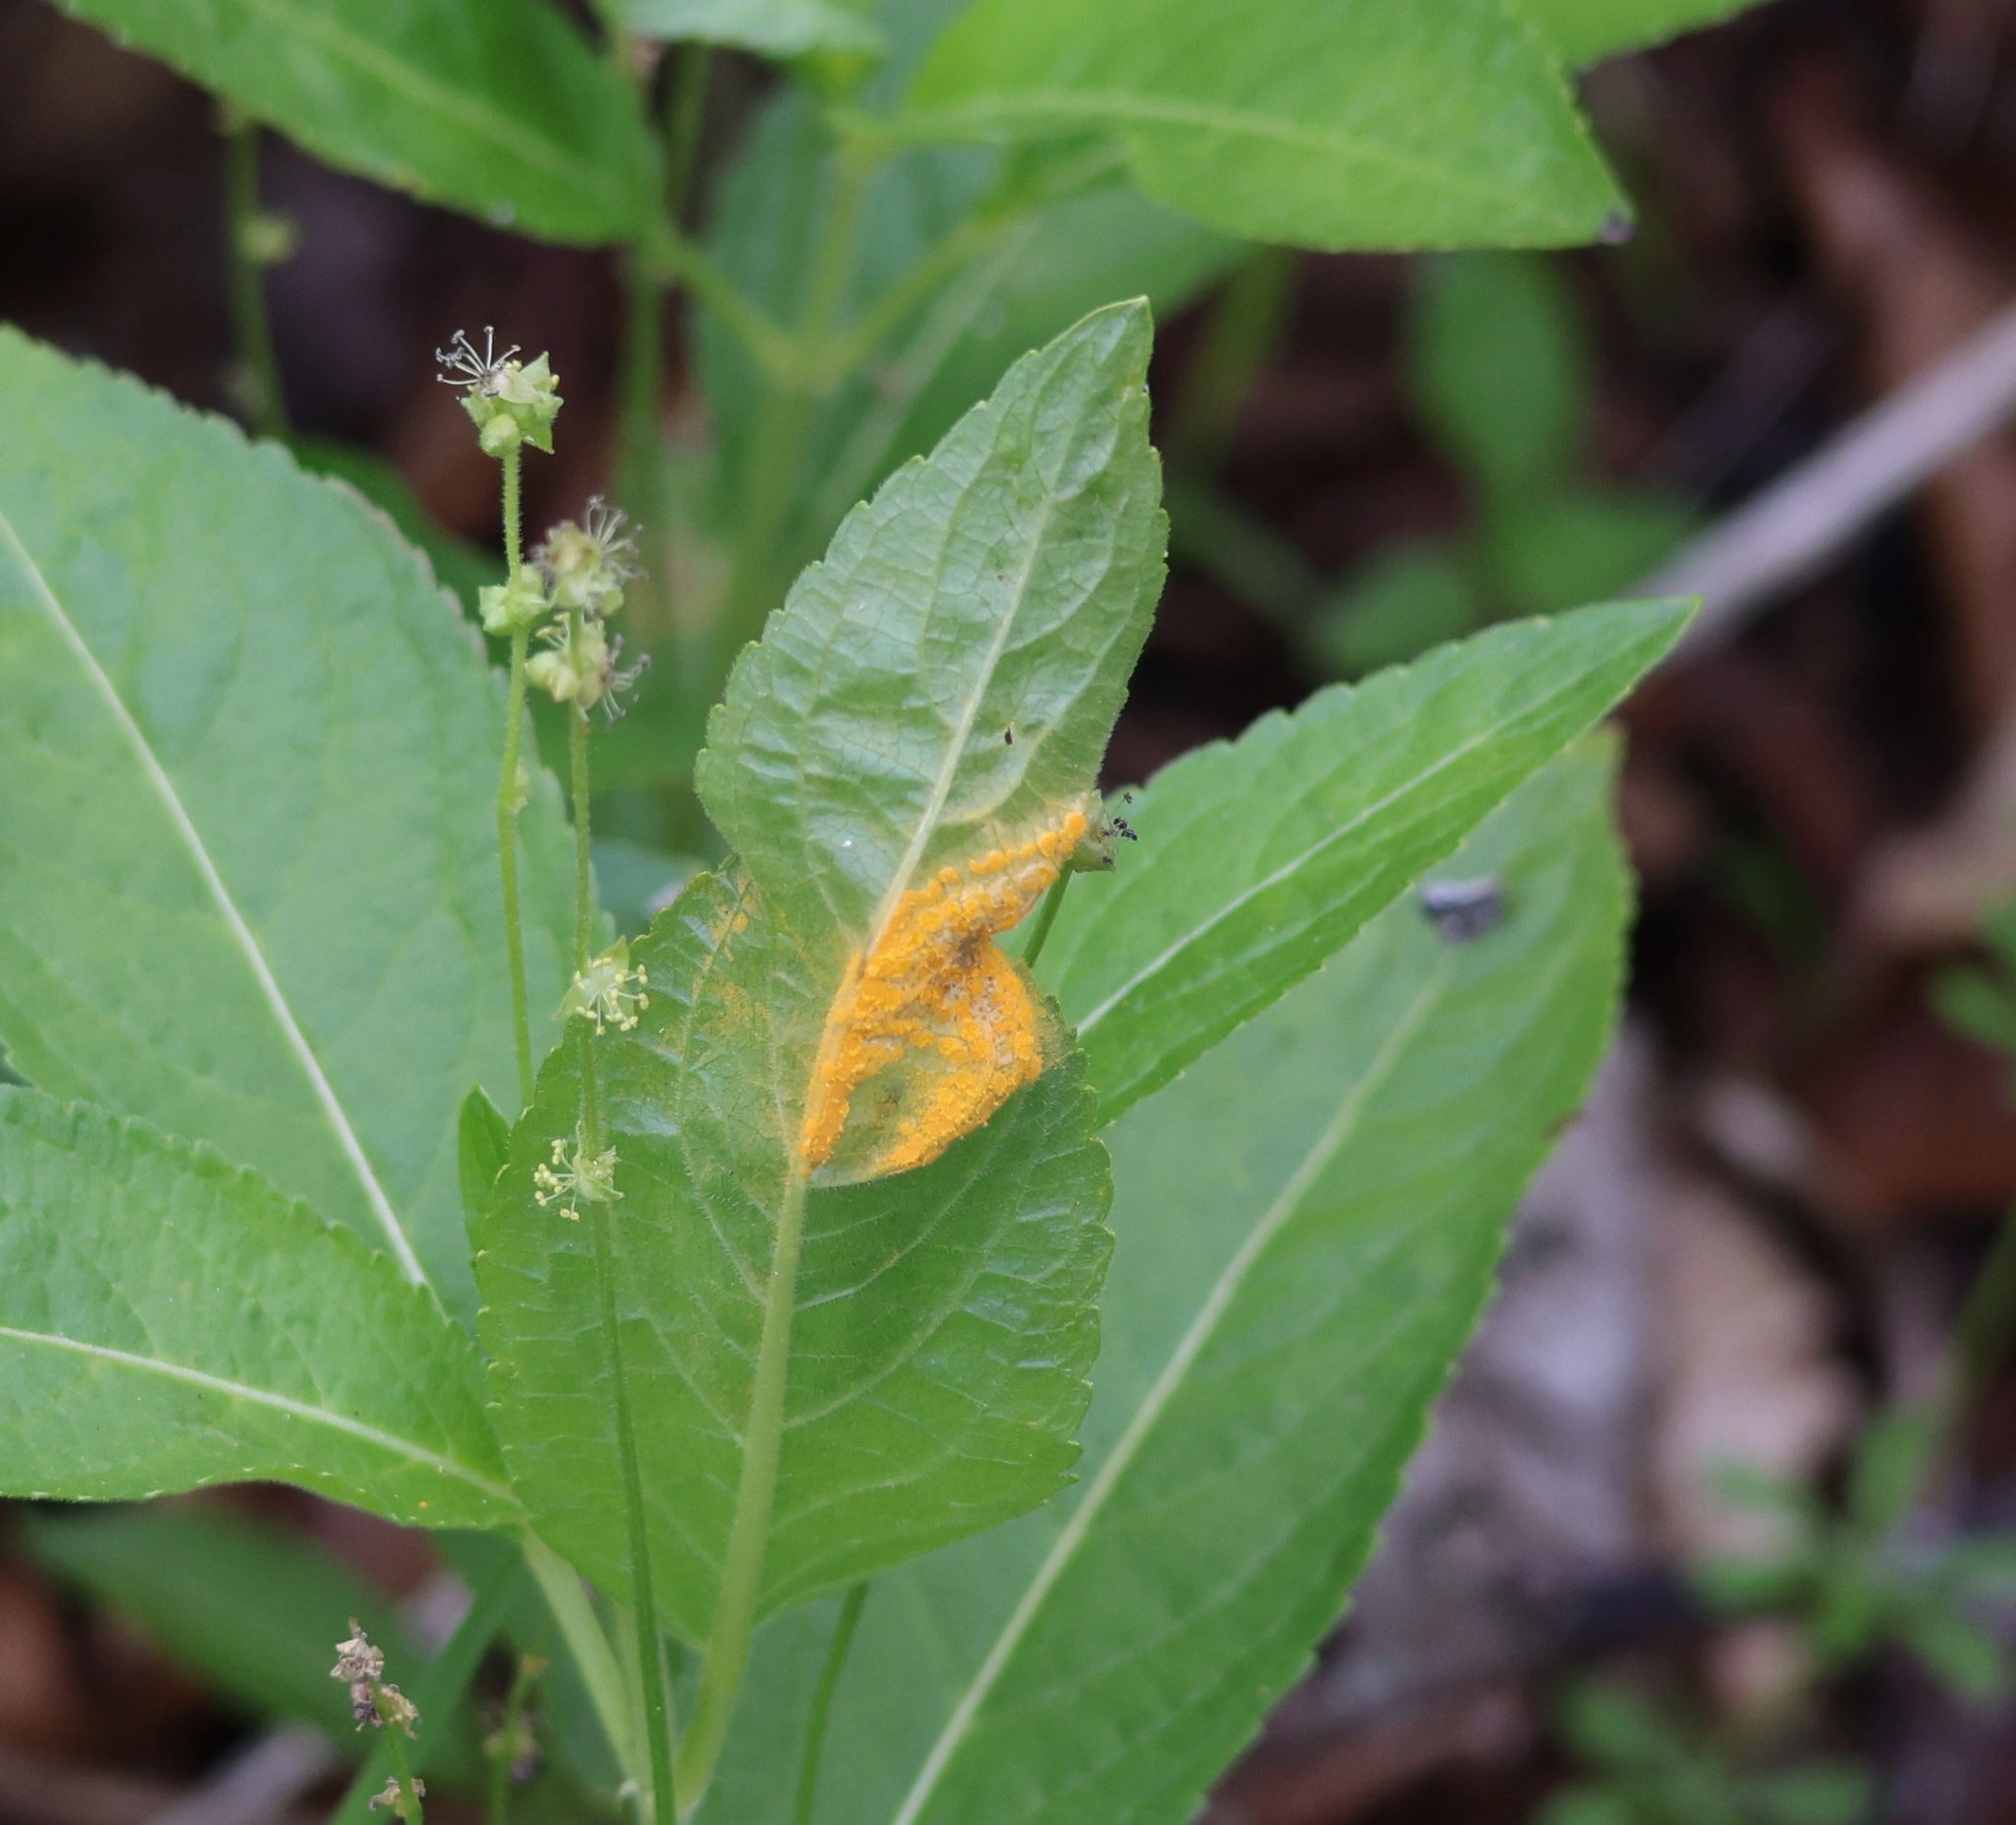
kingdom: Fungi
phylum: Basidiomycota
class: Pucciniomycetes
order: Pucciniales
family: Melampsoraceae
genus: Melampsora
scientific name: Melampsora rostrupii
